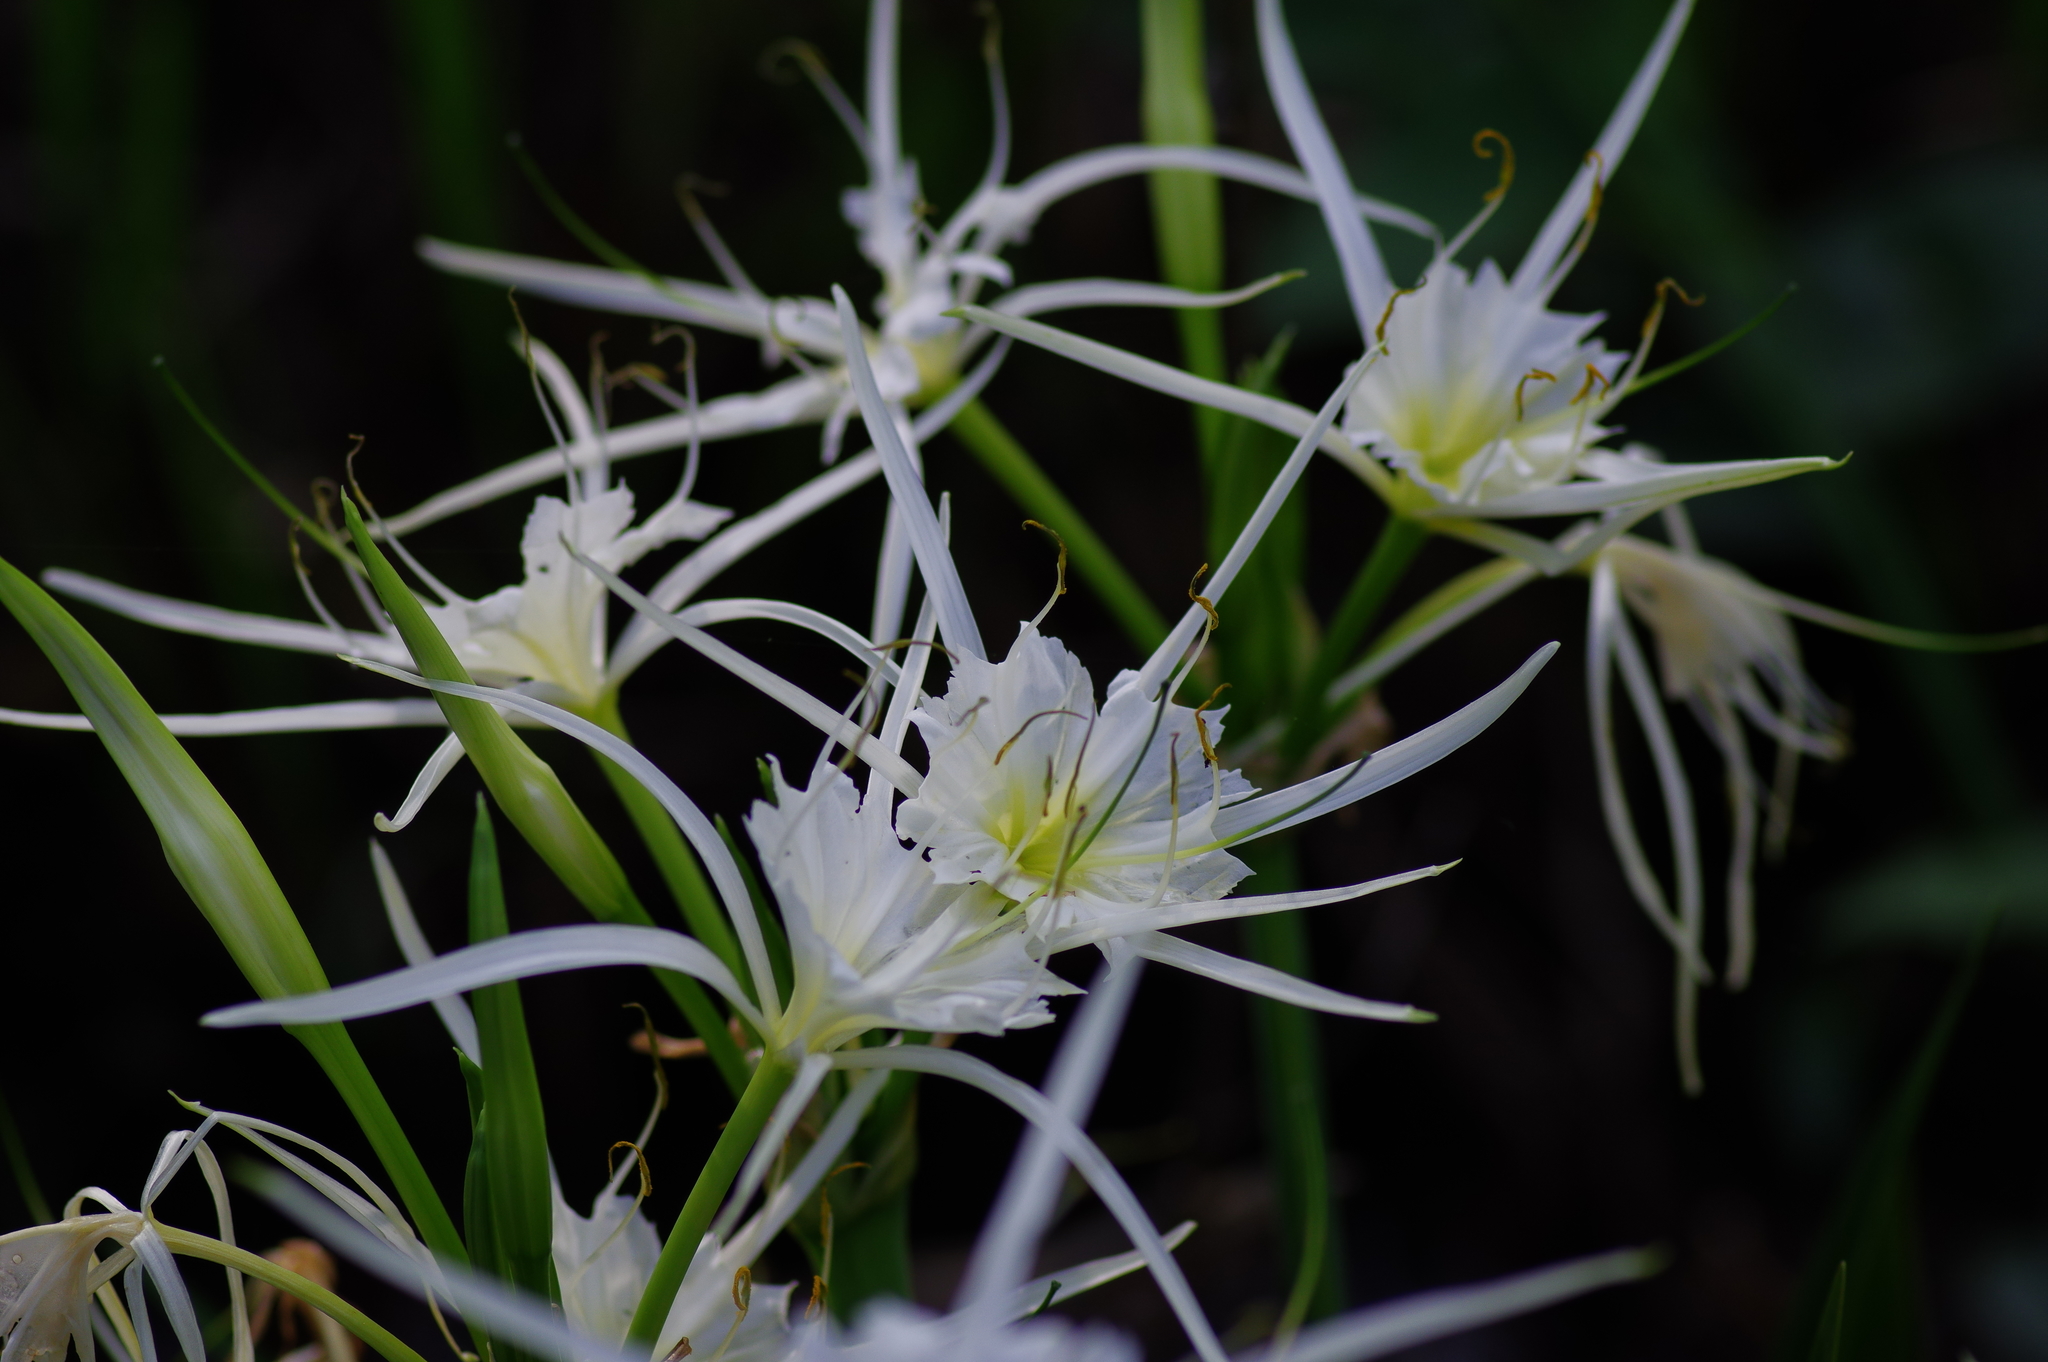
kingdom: Plantae
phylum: Tracheophyta
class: Liliopsida
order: Asparagales
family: Amaryllidaceae
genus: Hymenocallis
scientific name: Hymenocallis liriosme
